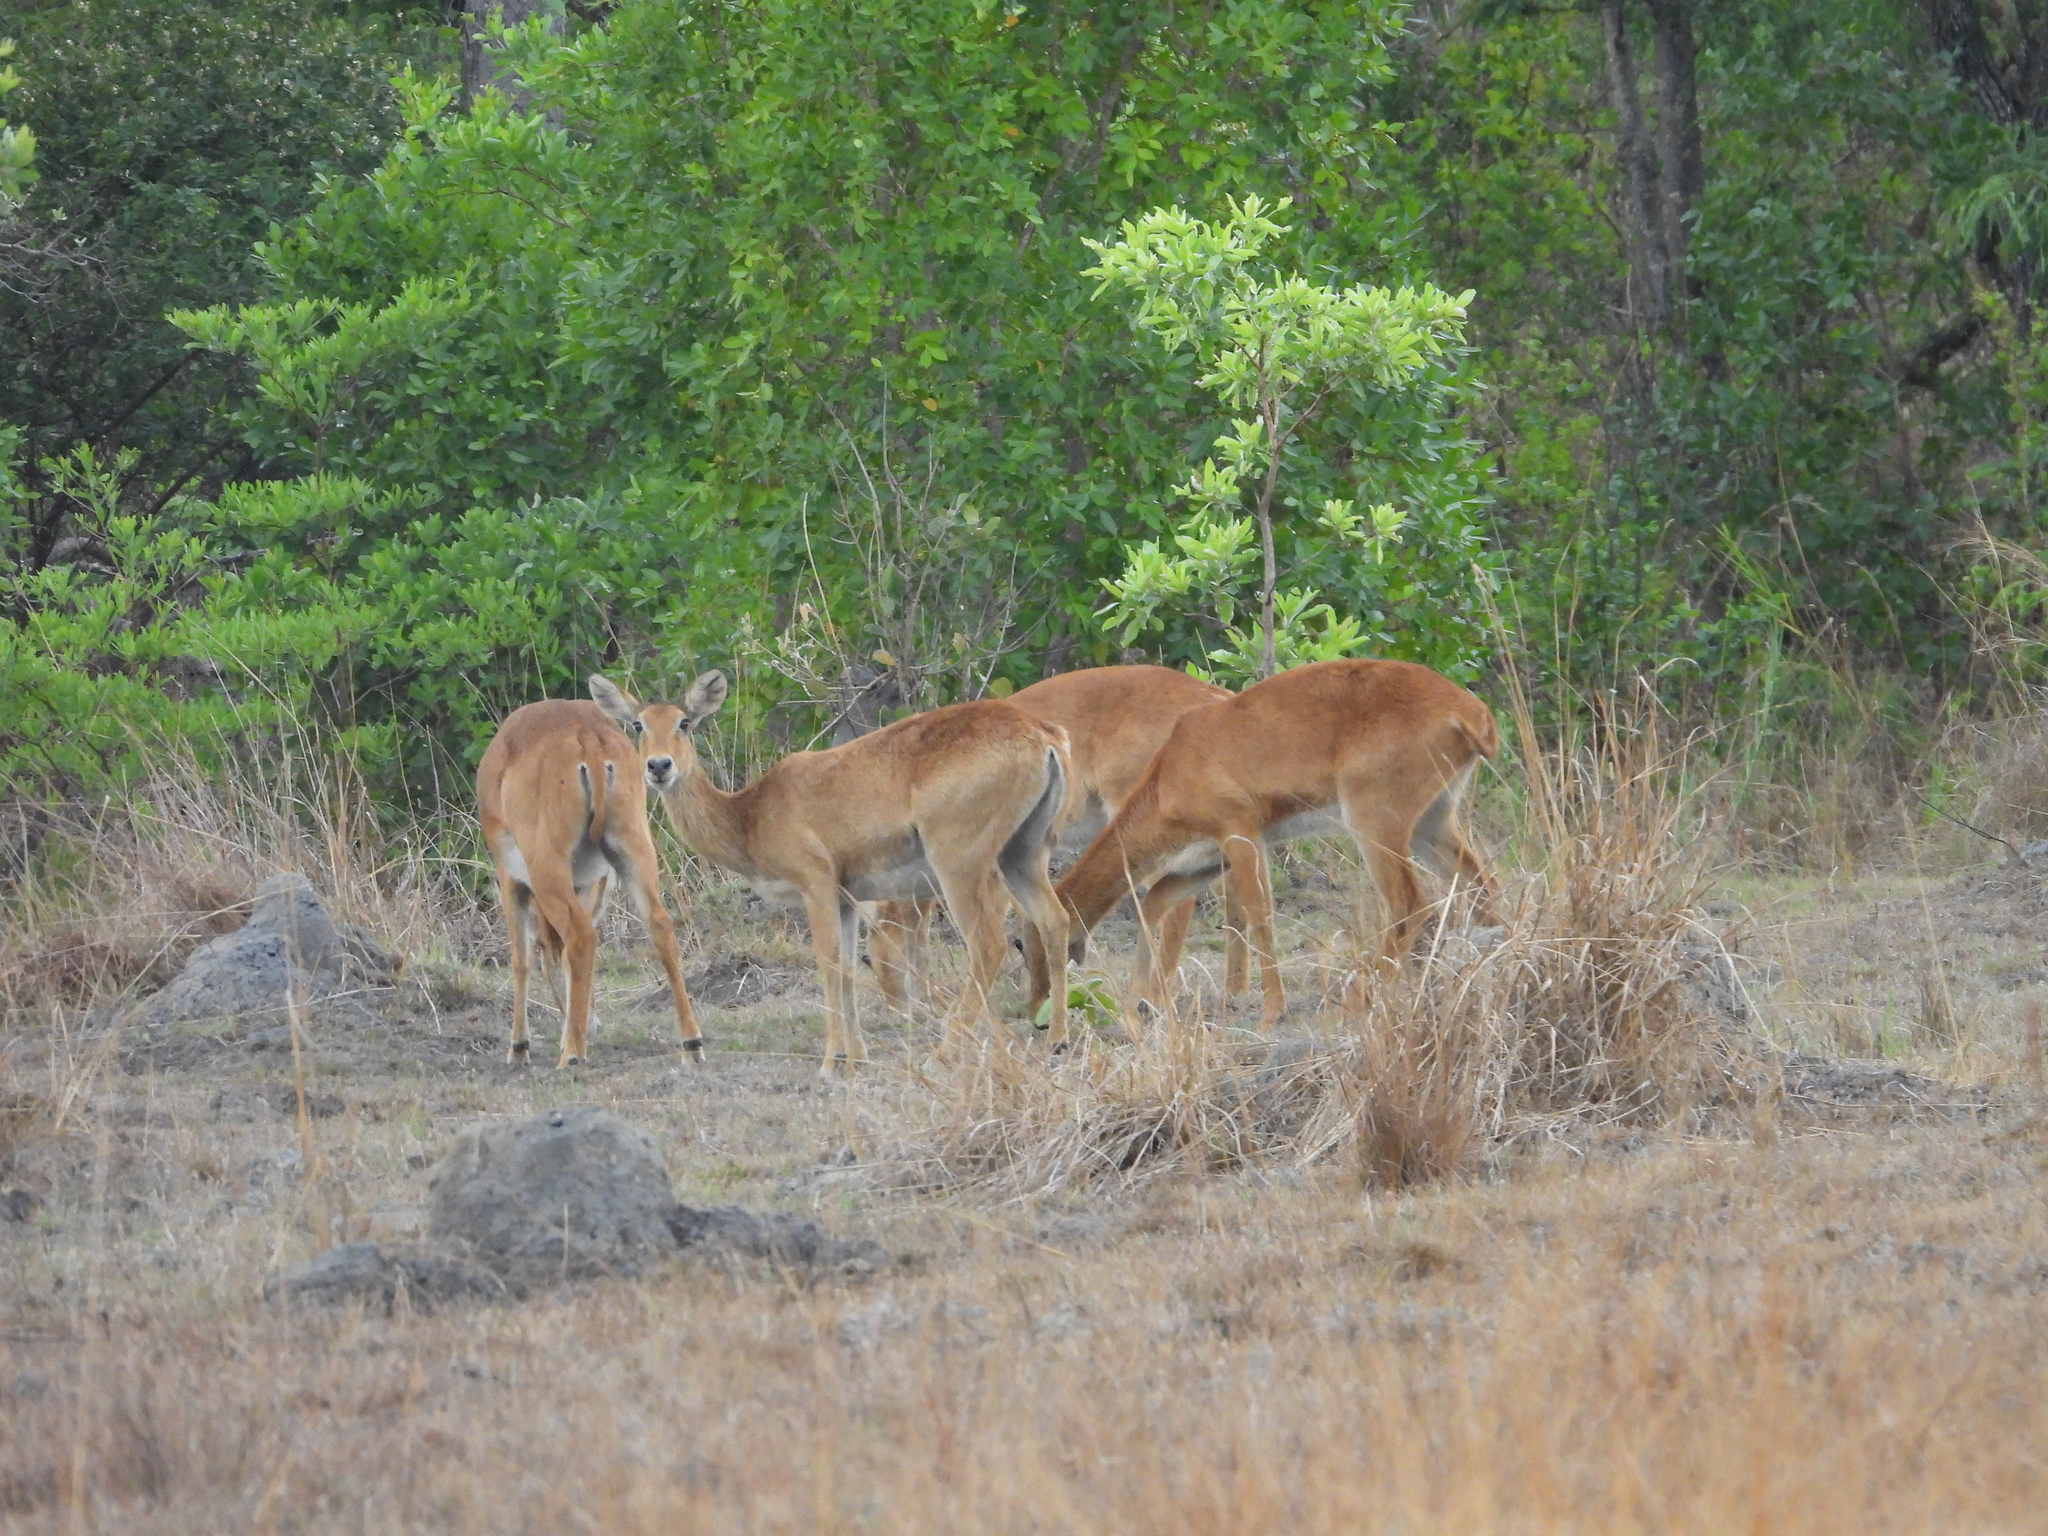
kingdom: Animalia
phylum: Chordata
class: Mammalia
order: Artiodactyla
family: Bovidae
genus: Kobus
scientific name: Kobus vardonii
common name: Puku
